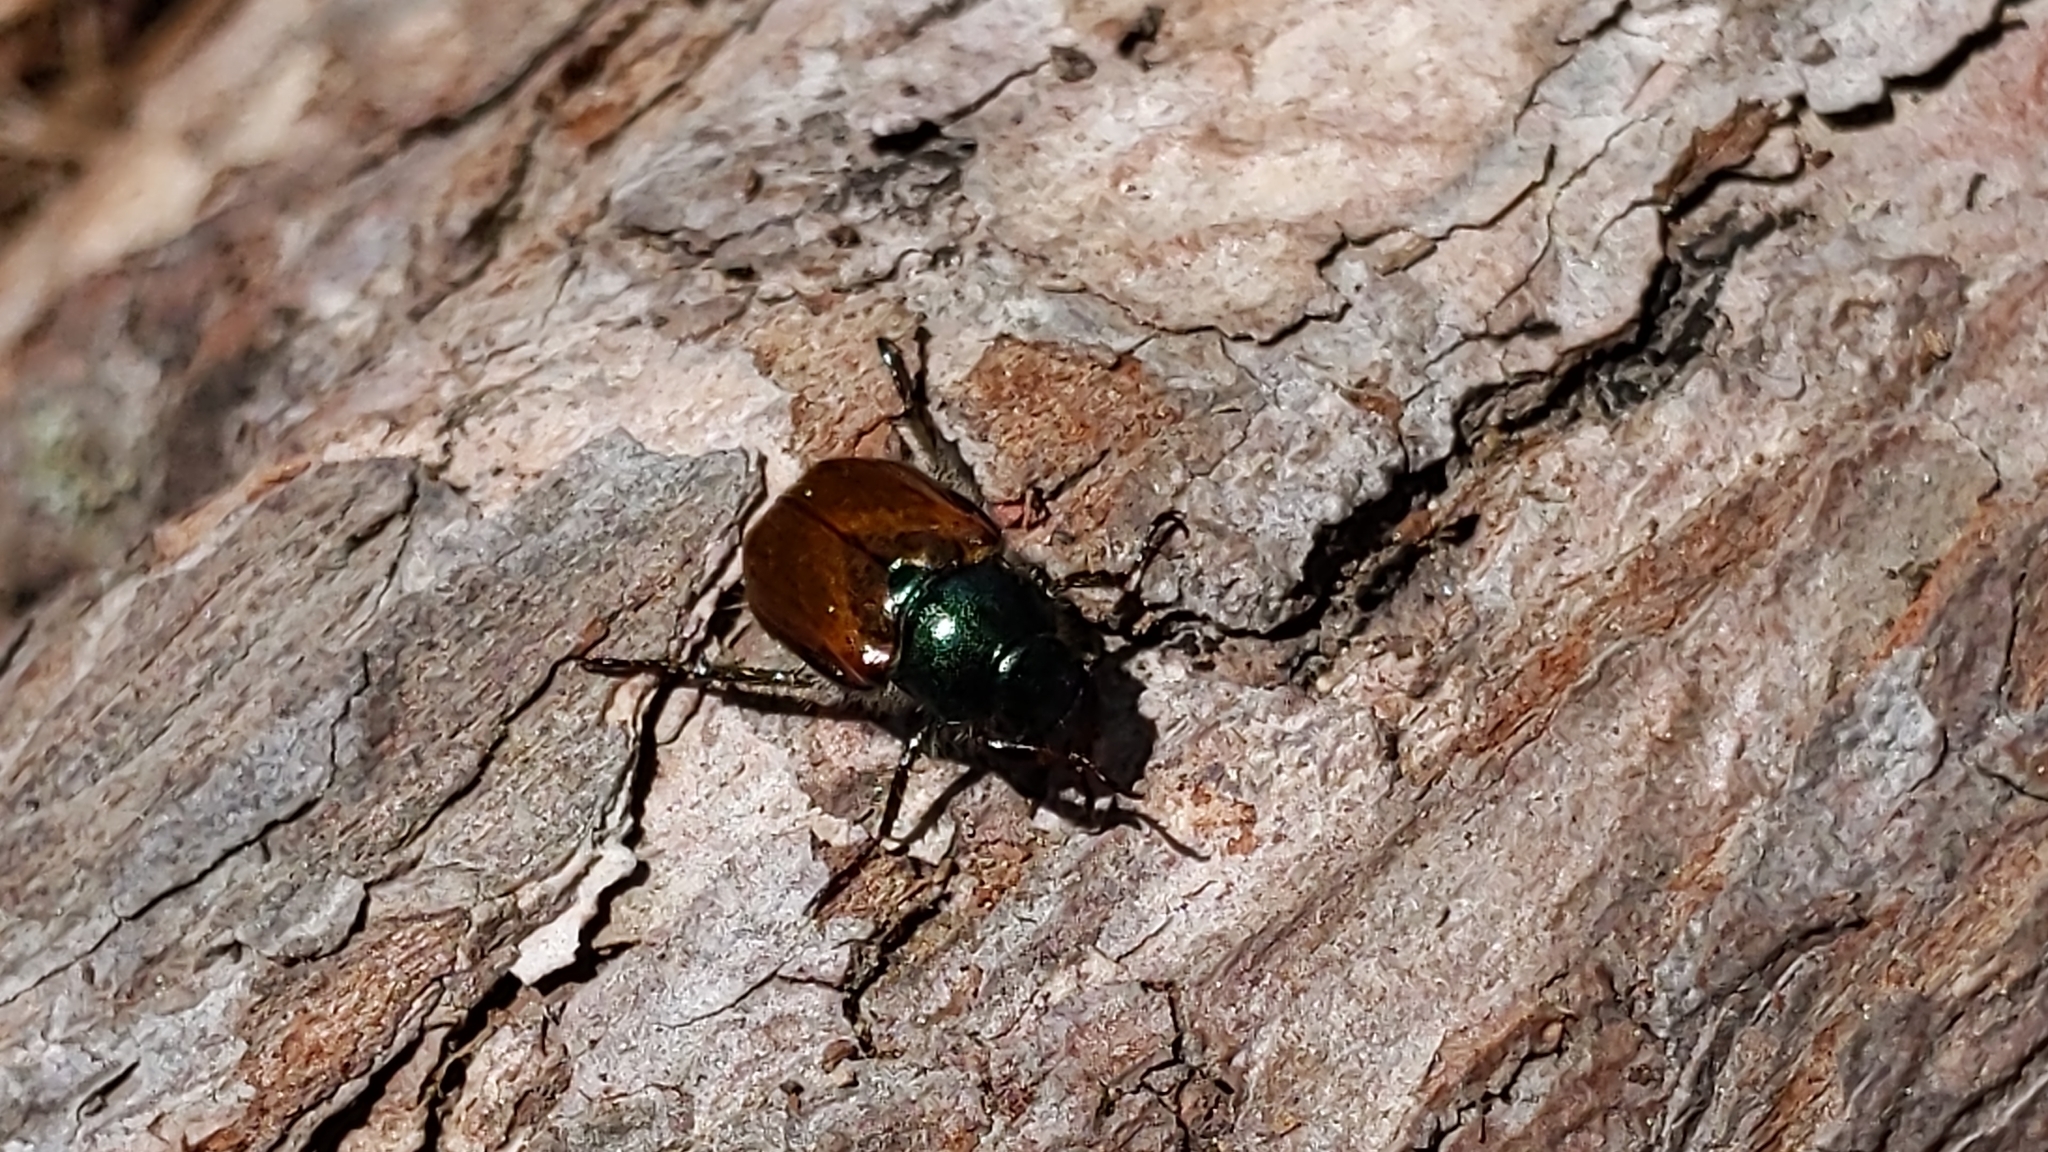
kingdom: Animalia
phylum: Arthropoda
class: Insecta
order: Coleoptera
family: Scarabaeidae
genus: Phyllopertha
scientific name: Phyllopertha horticola
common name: Garden chafer
